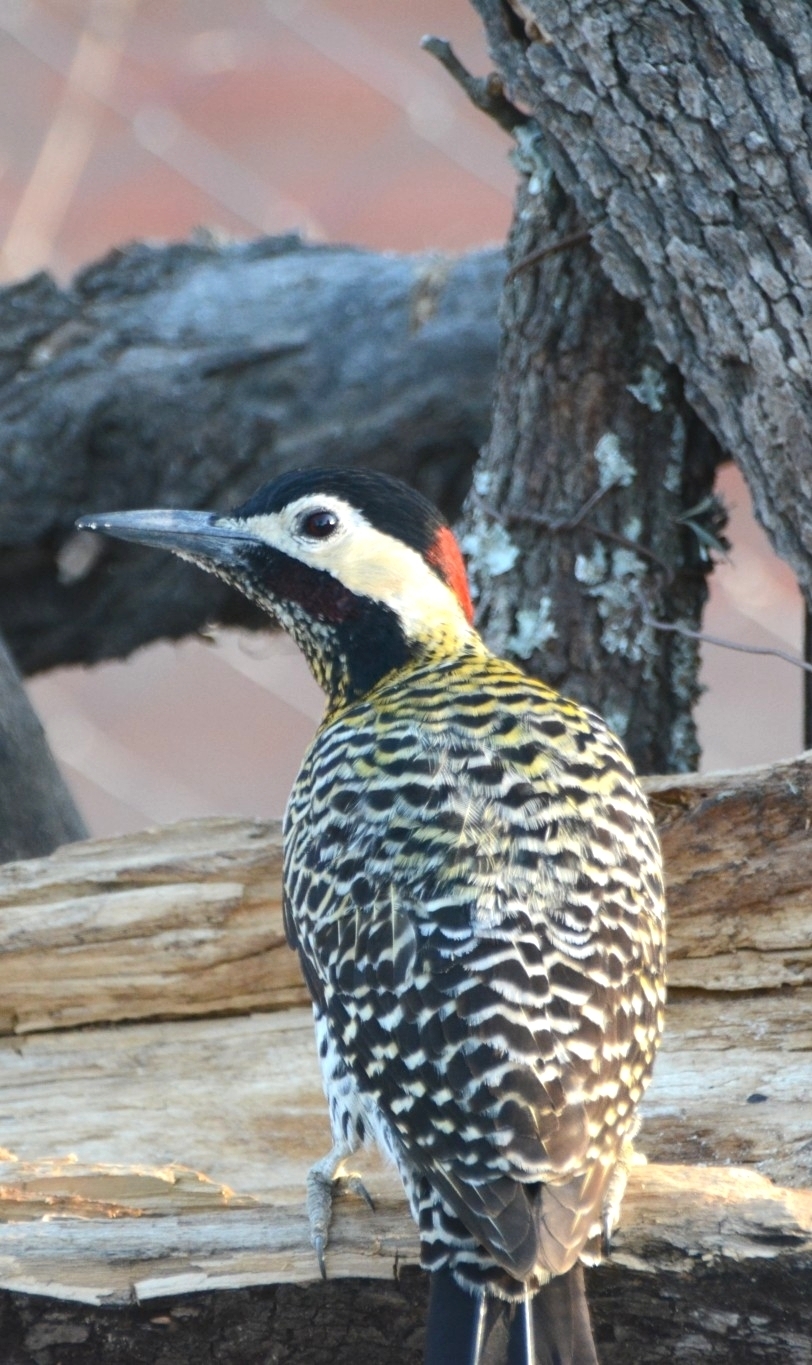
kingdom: Animalia
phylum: Chordata
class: Aves
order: Piciformes
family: Picidae
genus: Colaptes
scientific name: Colaptes melanochloros
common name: Green-barred woodpecker
